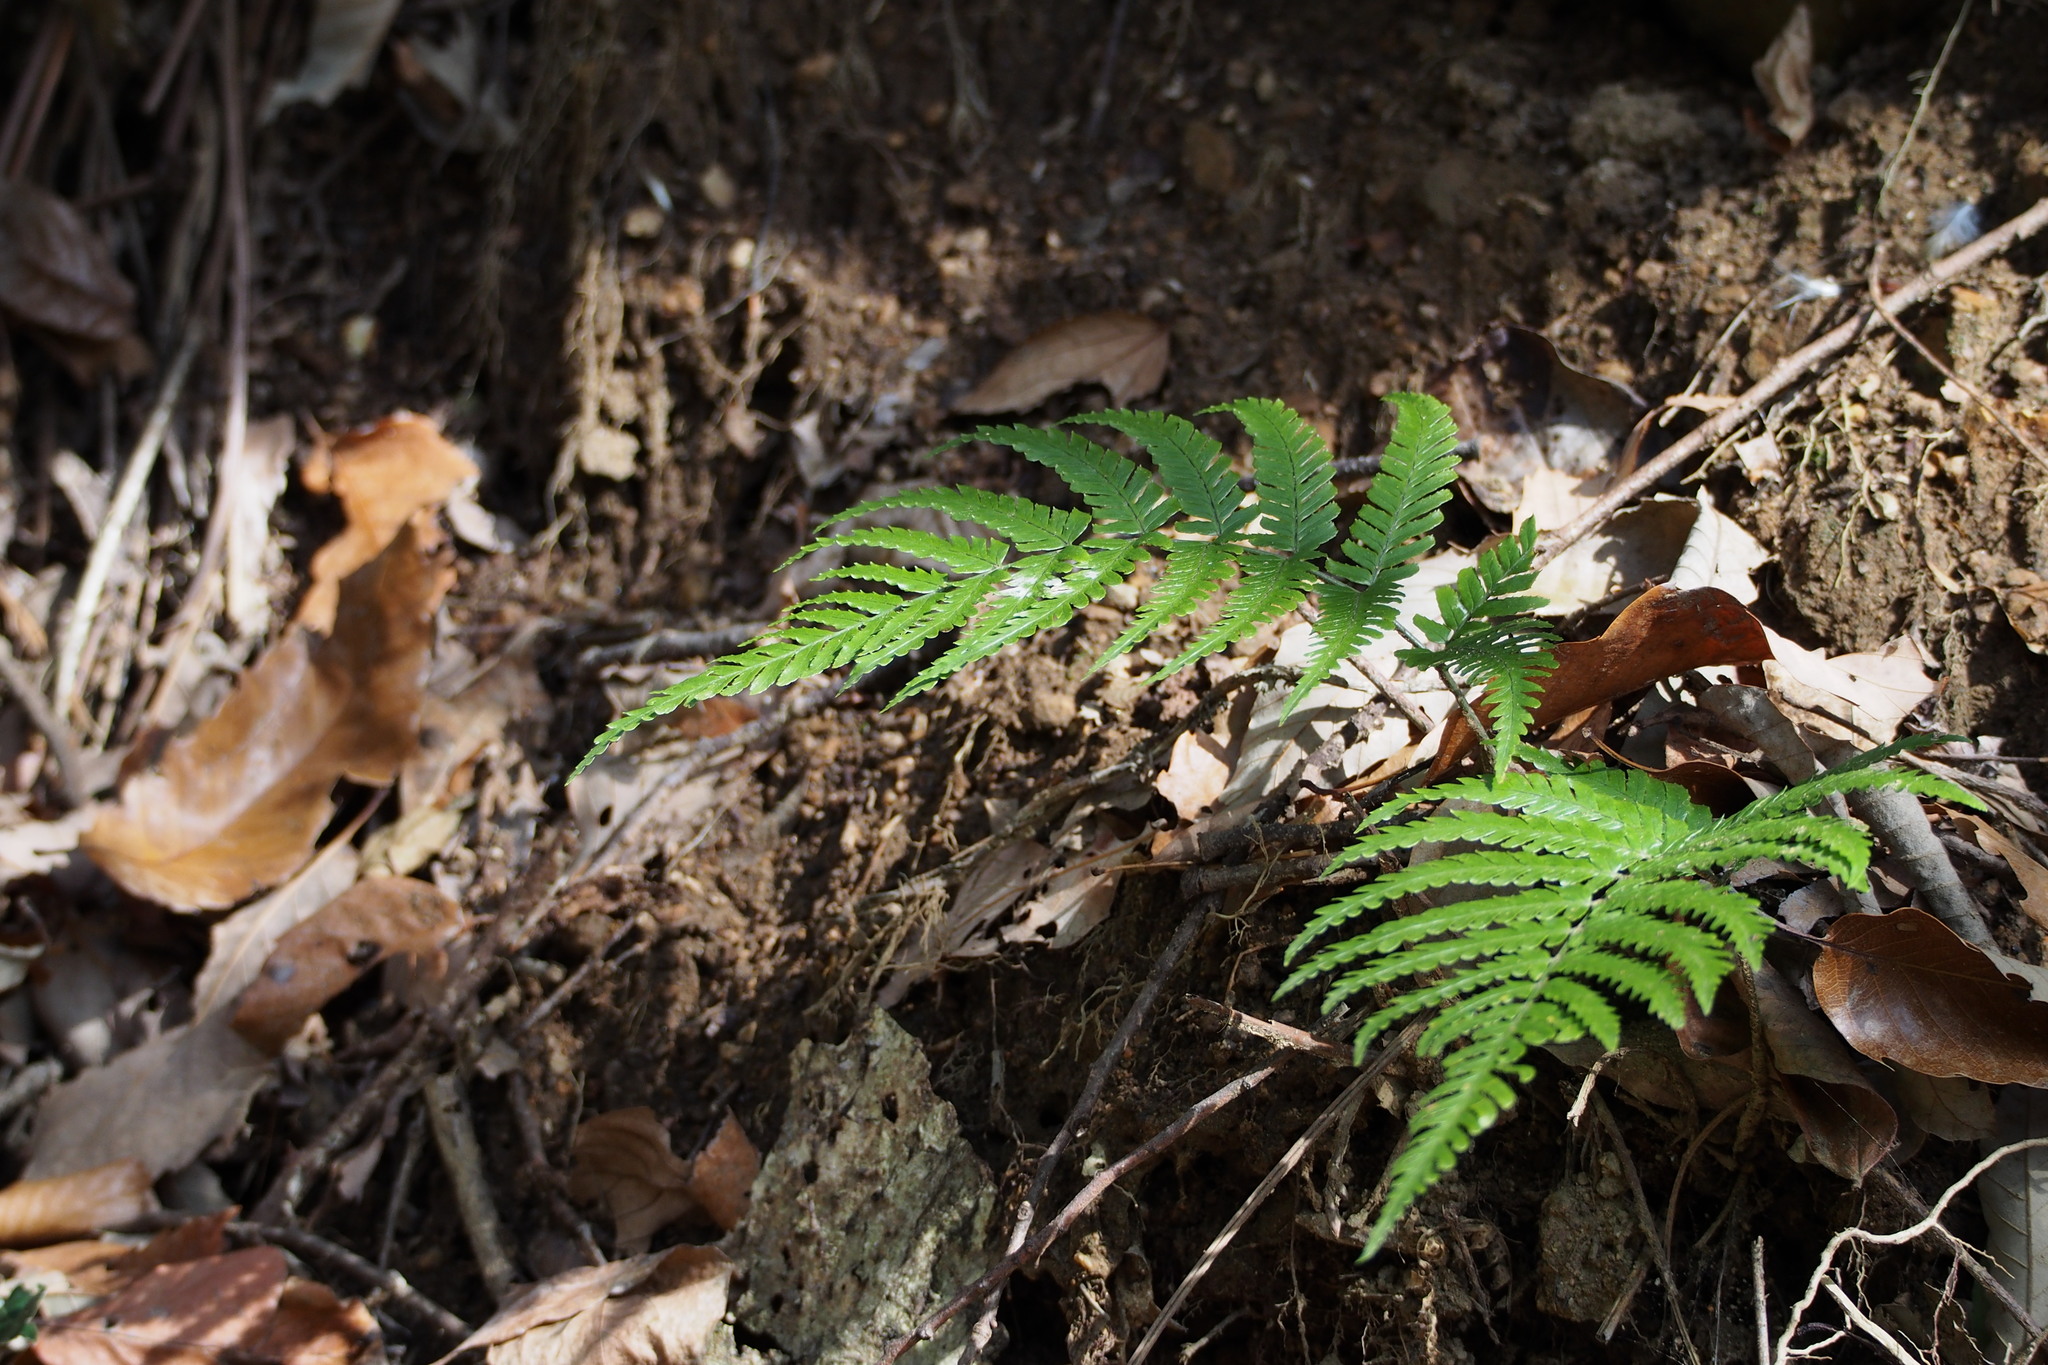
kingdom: Plantae
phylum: Tracheophyta
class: Polypodiopsida
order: Polypodiales
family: Dryopteridaceae
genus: Dryopteris
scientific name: Dryopteris erythrosora
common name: Autumn fern
